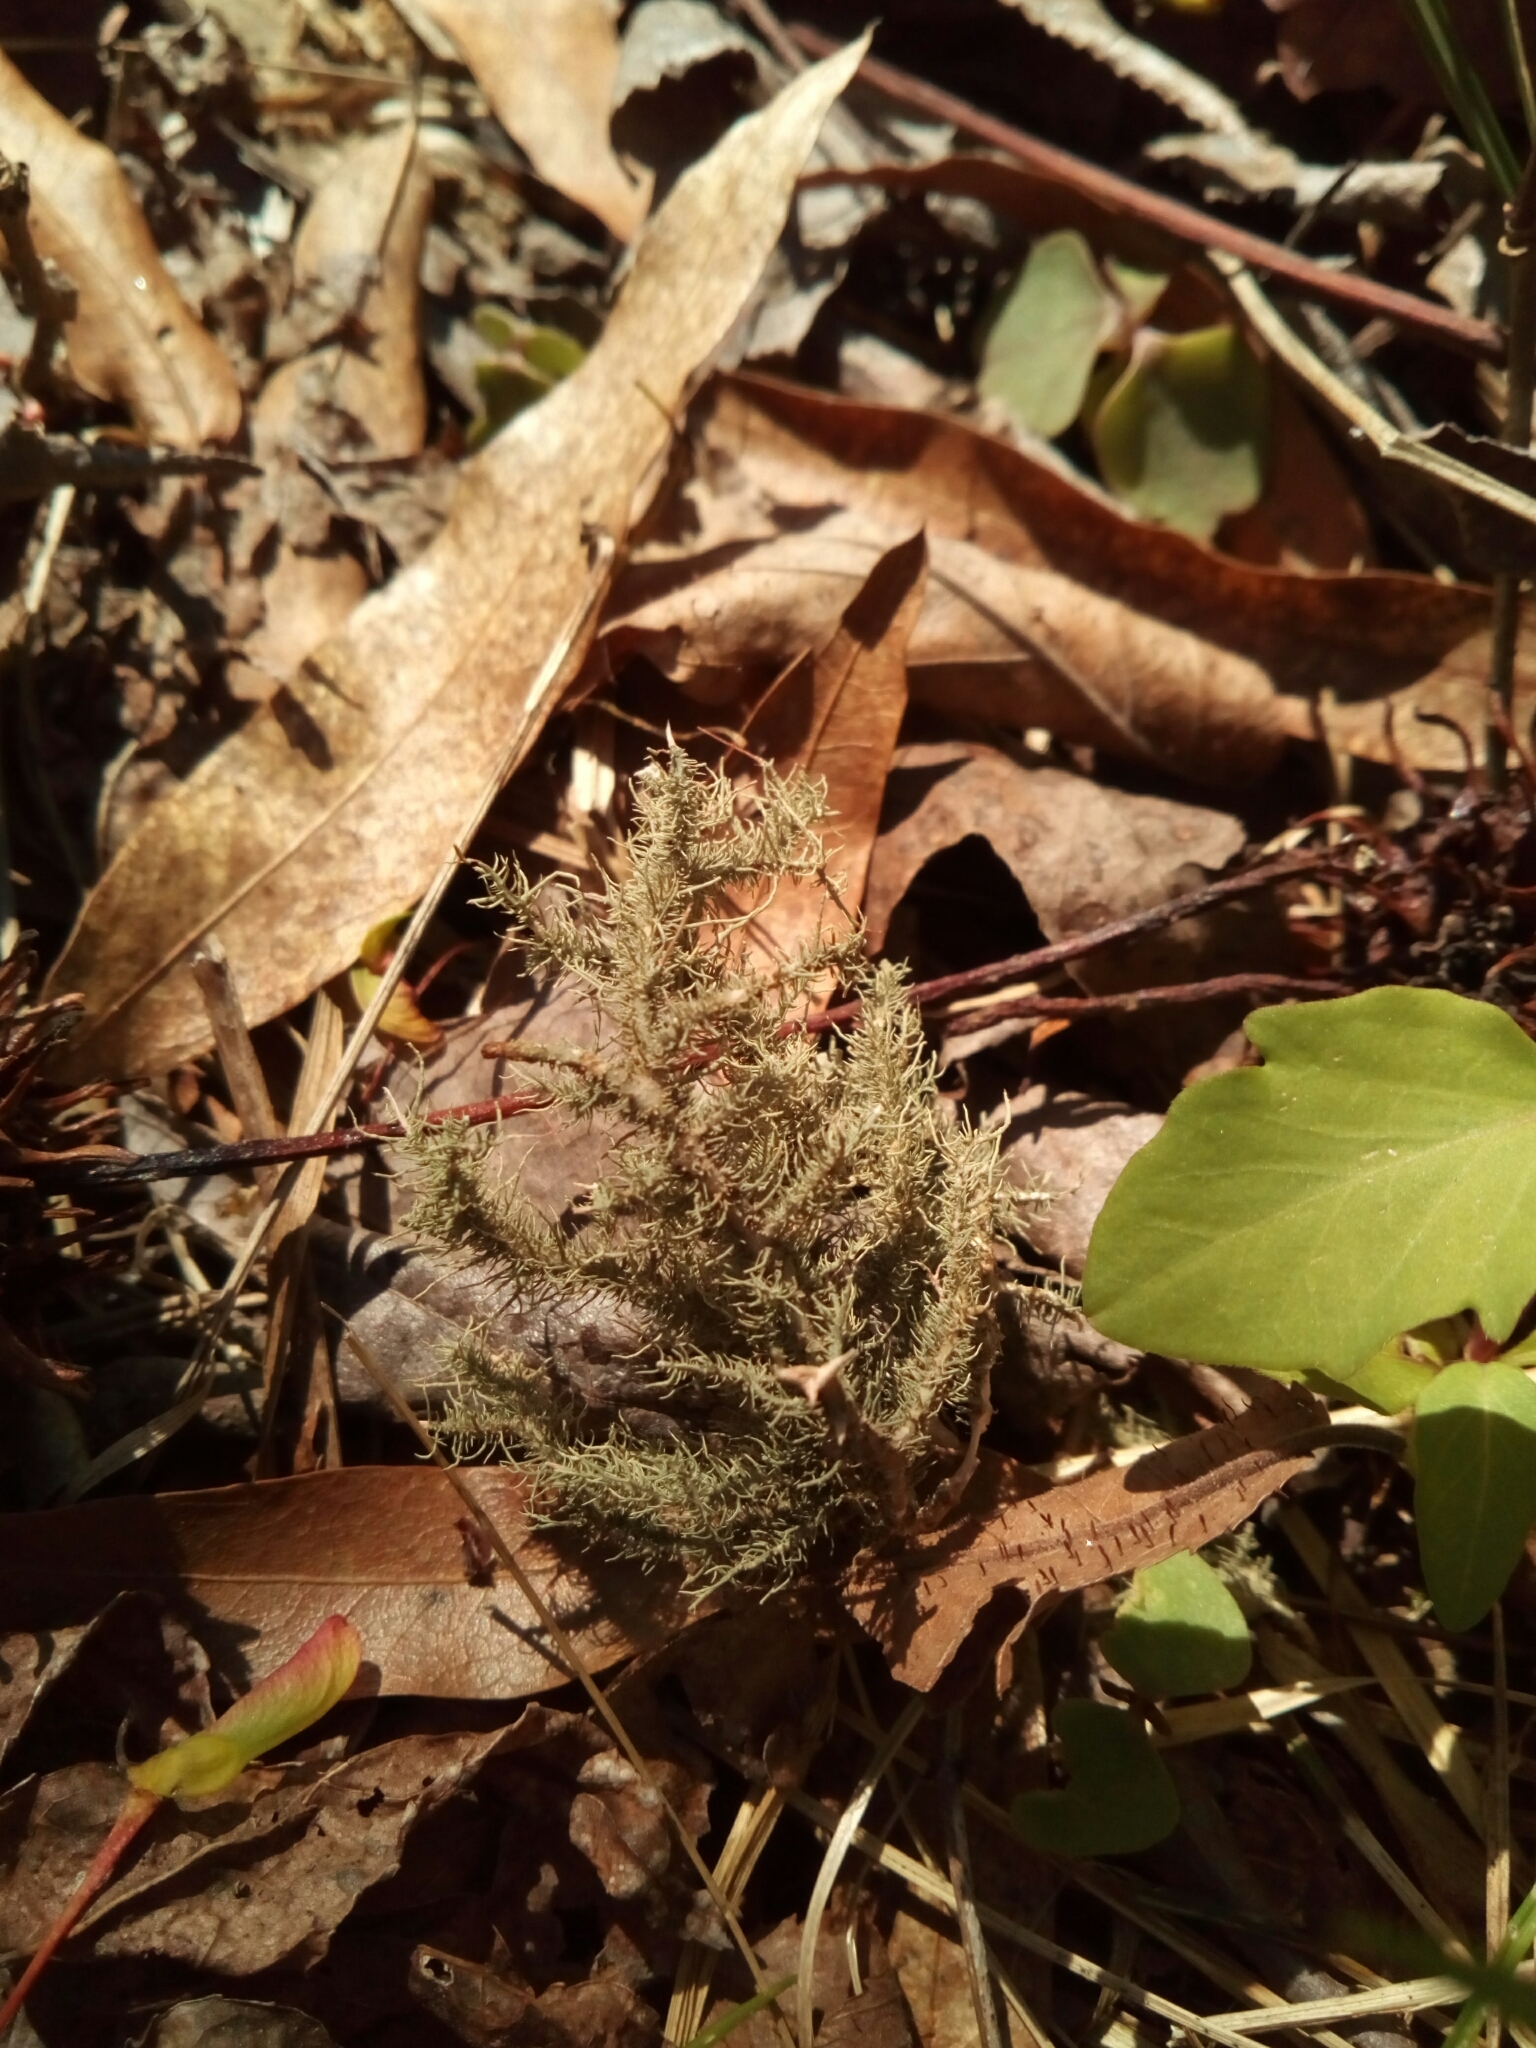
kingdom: Fungi
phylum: Ascomycota
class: Lecanoromycetes
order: Lecanorales
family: Parmeliaceae
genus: Usnea
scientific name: Usnea strigosa
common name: Bushy beard lichen
